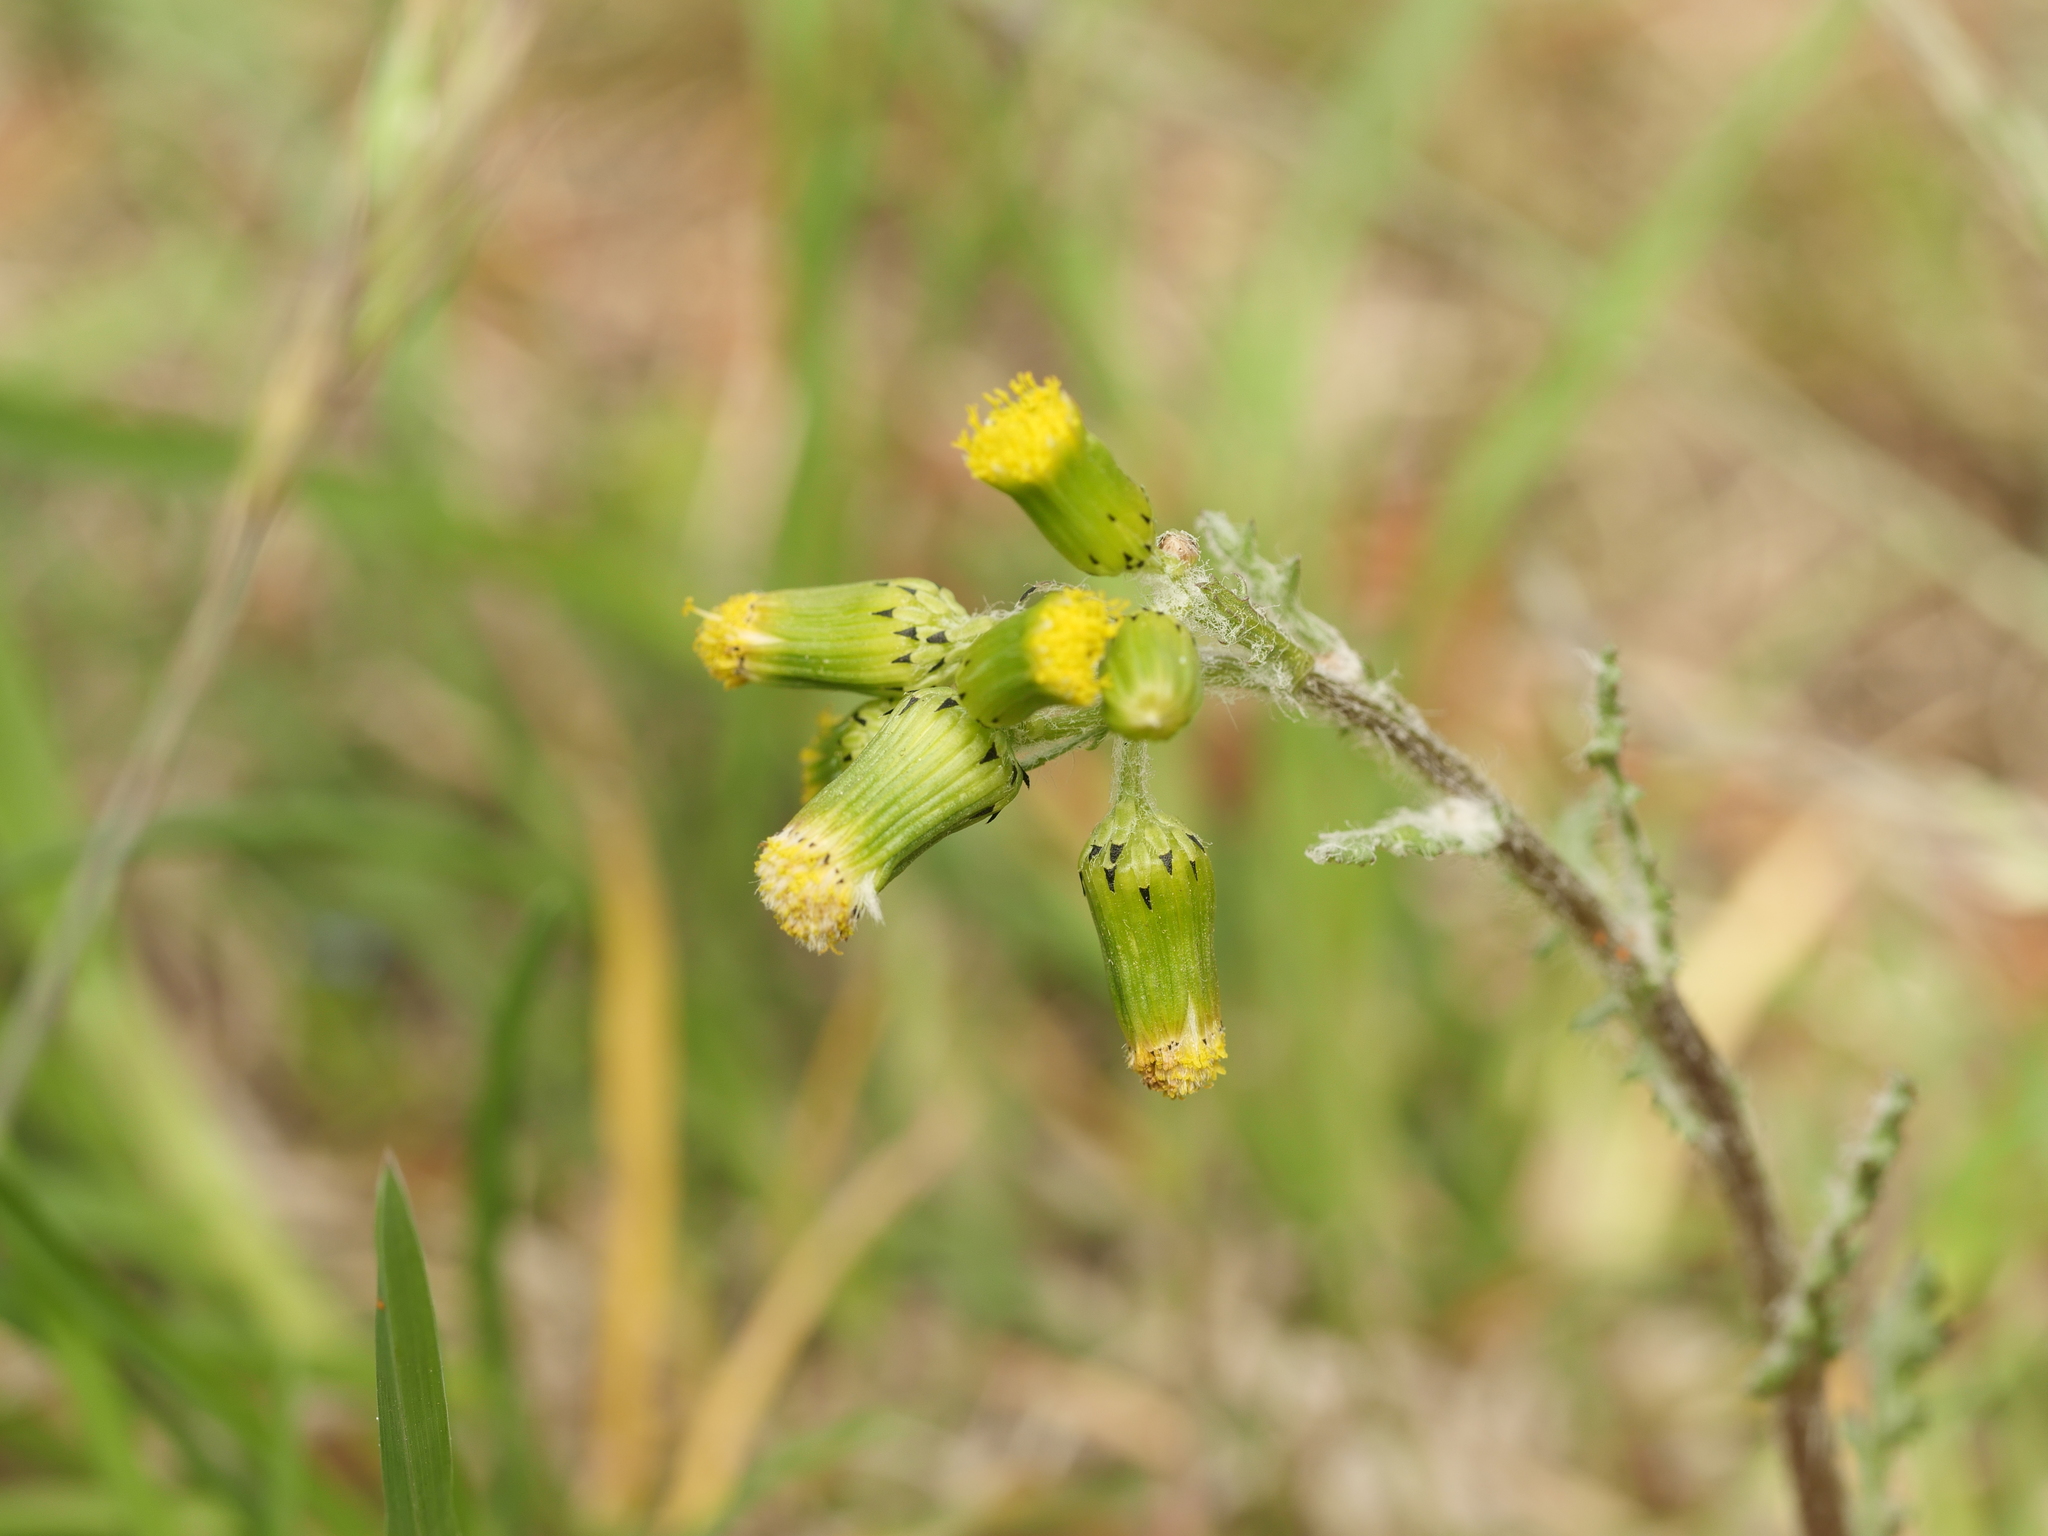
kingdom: Plantae
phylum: Tracheophyta
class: Magnoliopsida
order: Asterales
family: Asteraceae
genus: Senecio
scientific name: Senecio vulgaris
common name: Old-man-in-the-spring
